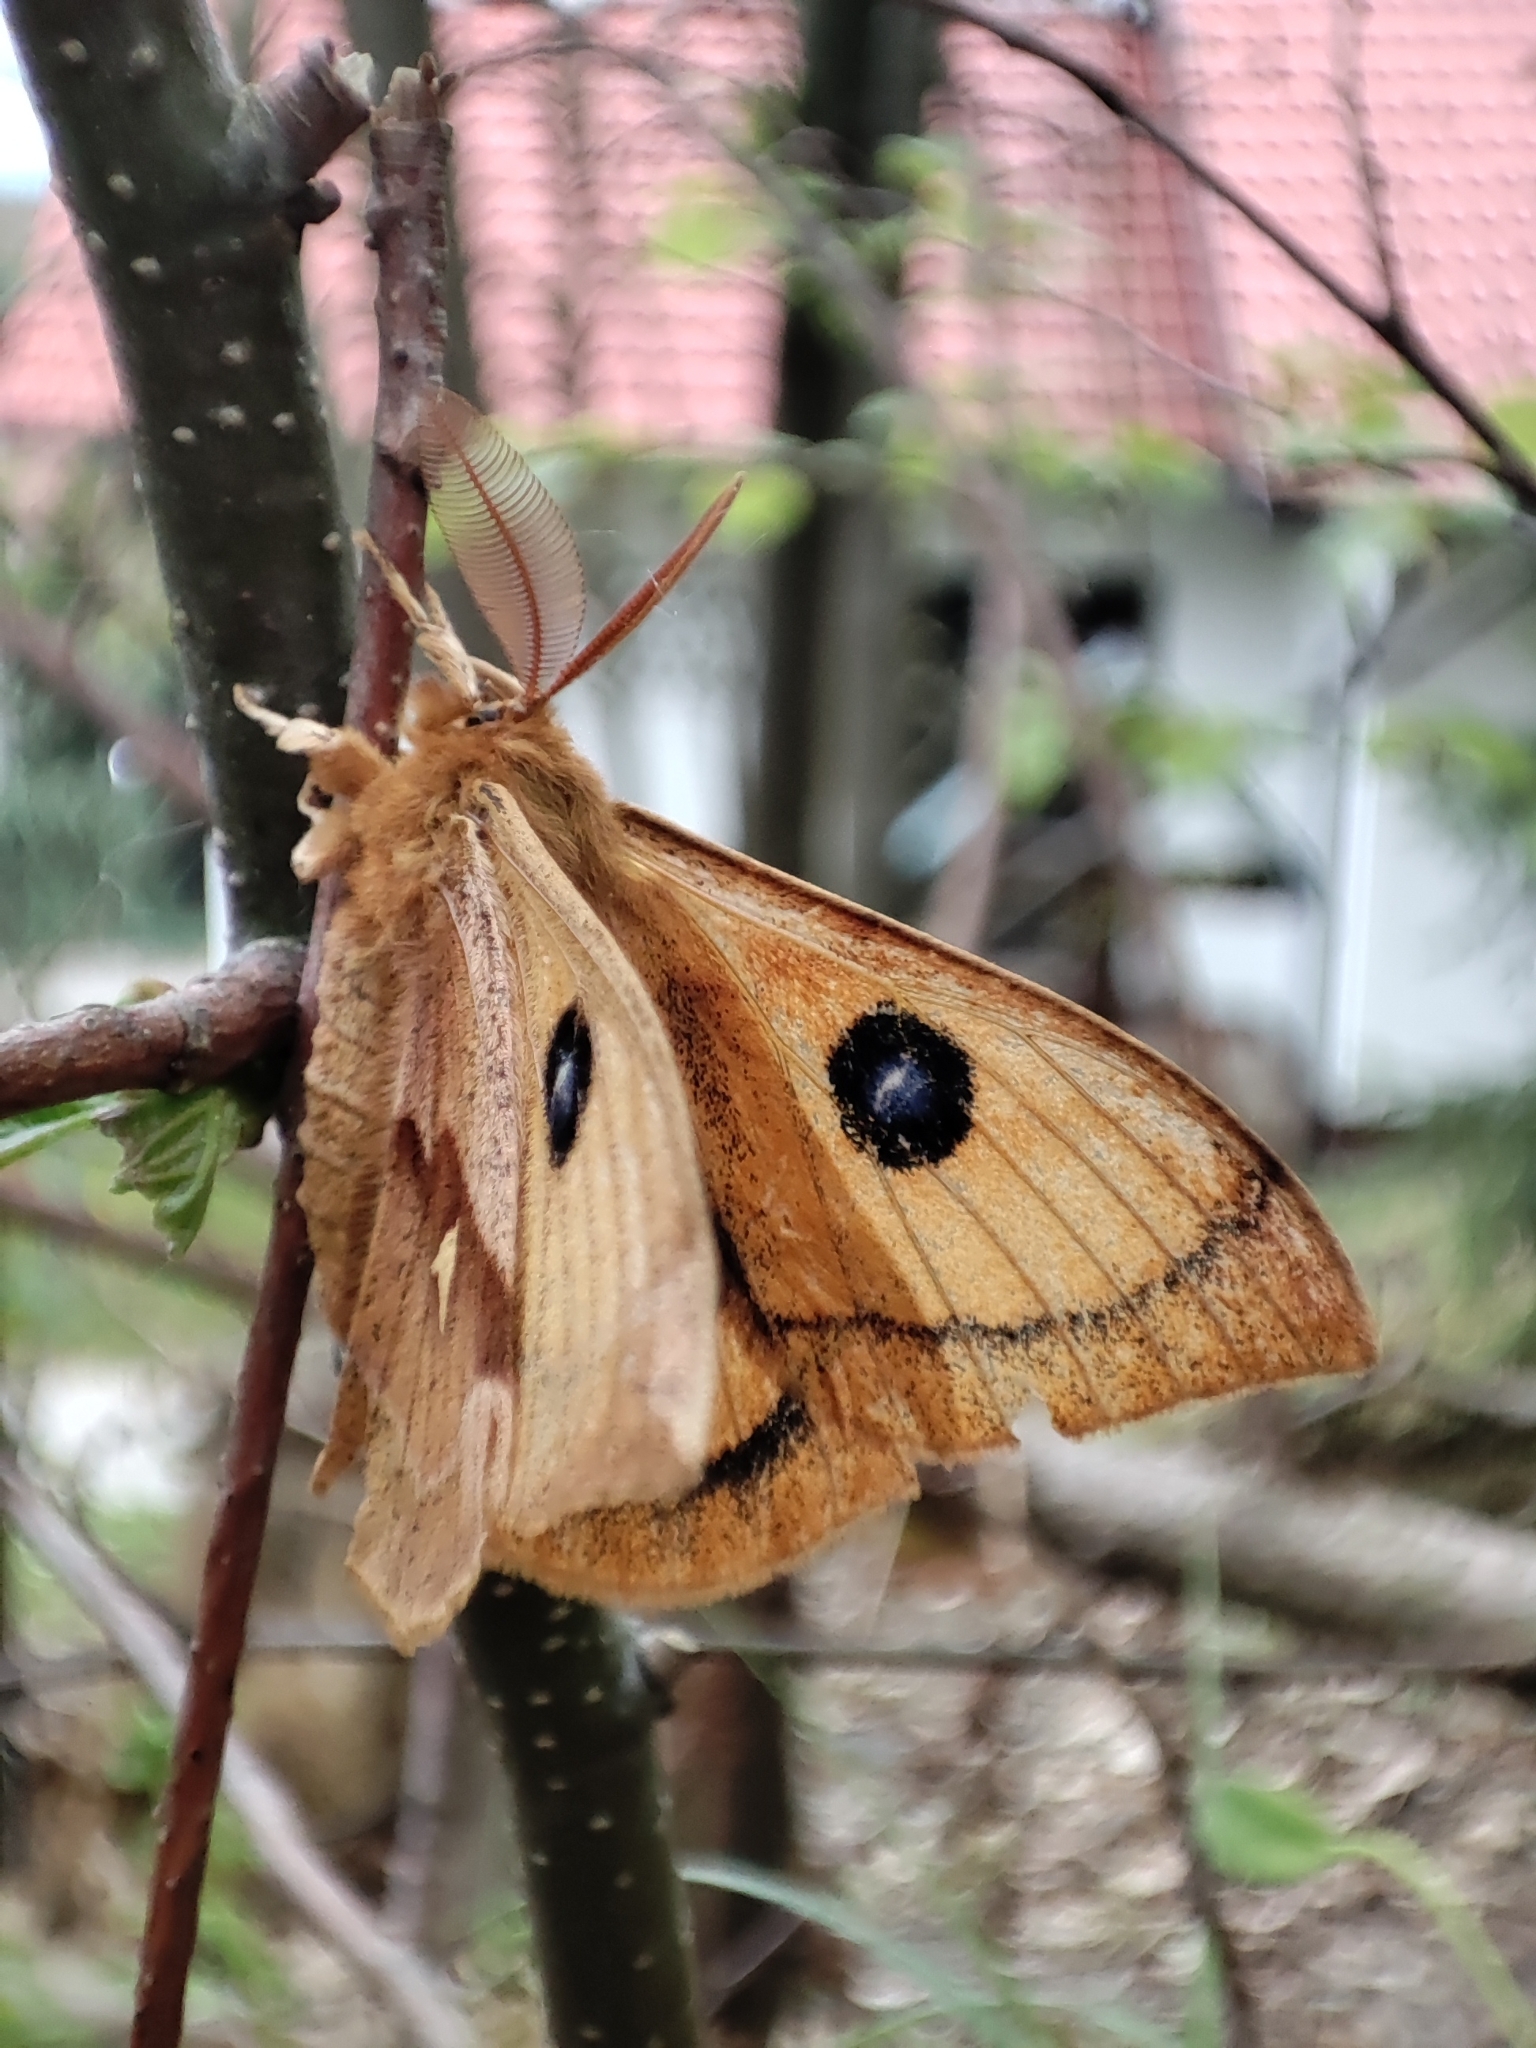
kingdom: Animalia
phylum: Arthropoda
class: Insecta
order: Lepidoptera
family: Saturniidae
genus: Aglia
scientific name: Aglia tau
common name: Tau emperor
